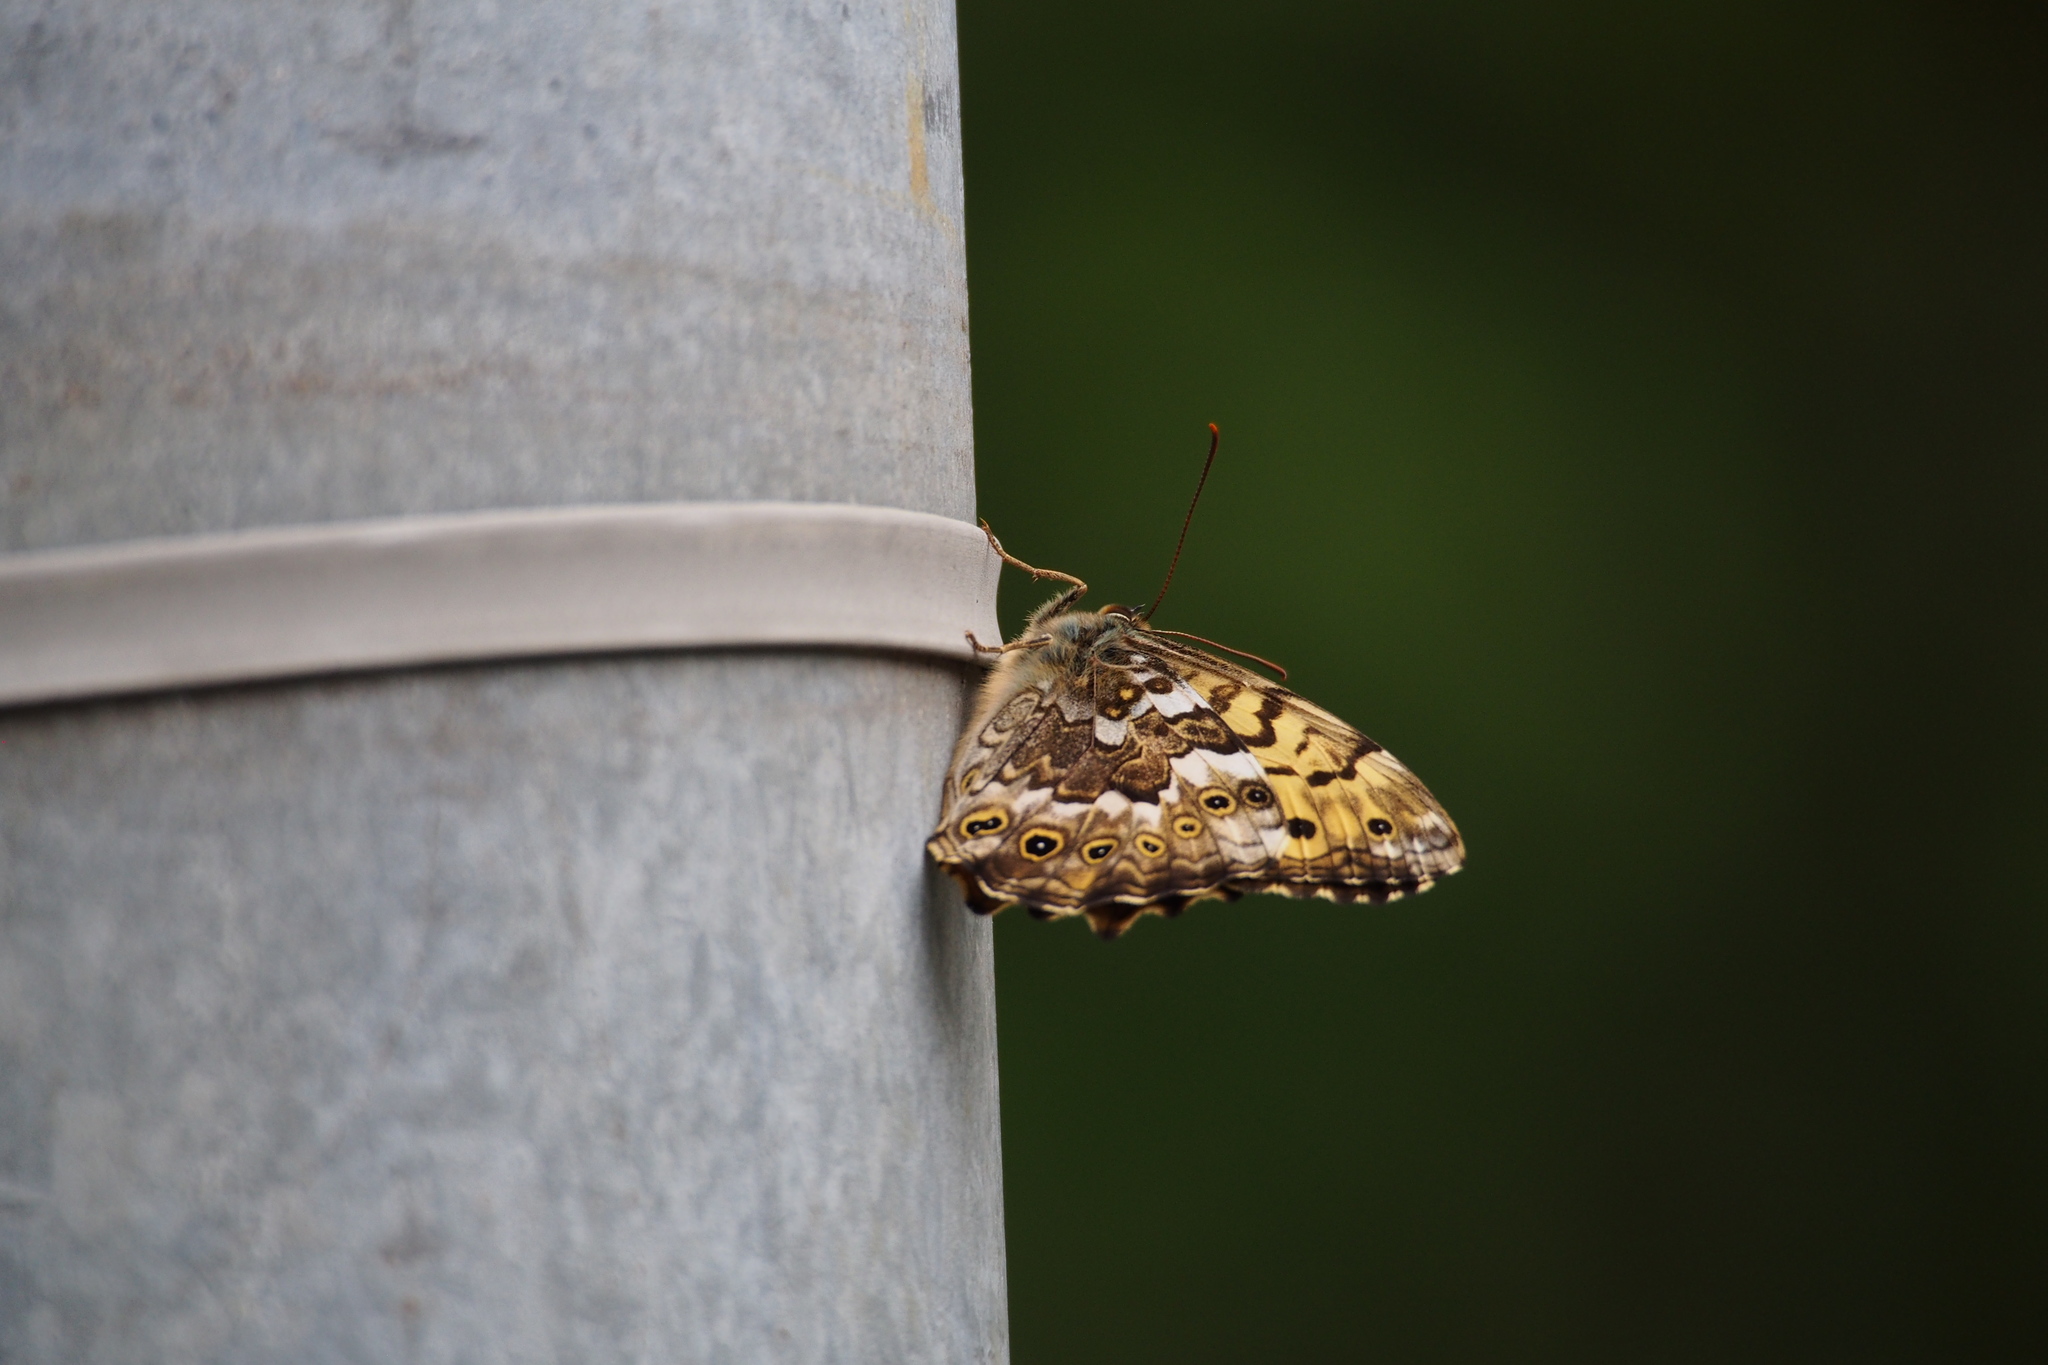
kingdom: Animalia
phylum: Arthropoda
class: Insecta
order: Lepidoptera
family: Nymphalidae
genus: Neope
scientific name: Neope goschkevitschii
